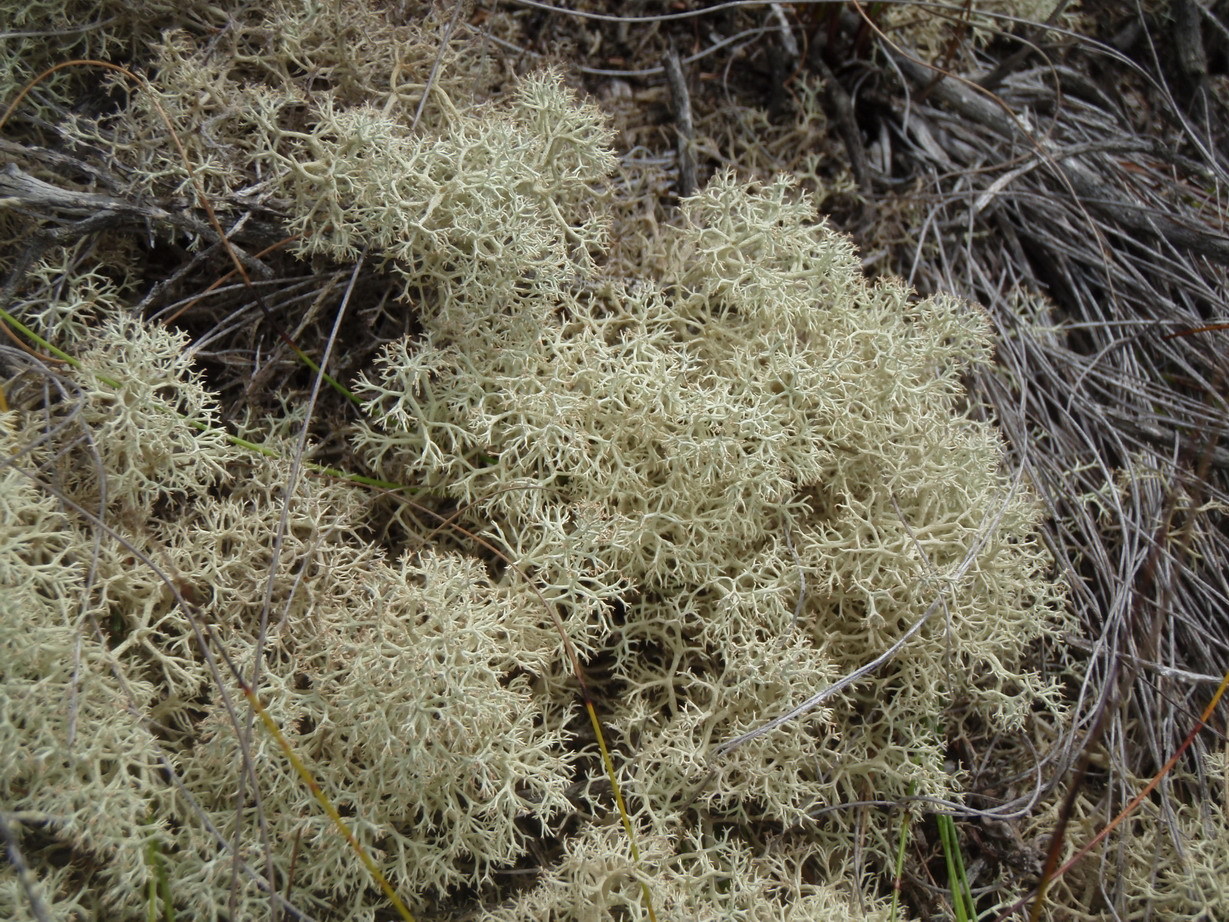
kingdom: Fungi
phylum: Ascomycota
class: Lecanoromycetes
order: Lecanorales
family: Cladoniaceae
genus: Cladonia
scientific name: Cladonia confusa
